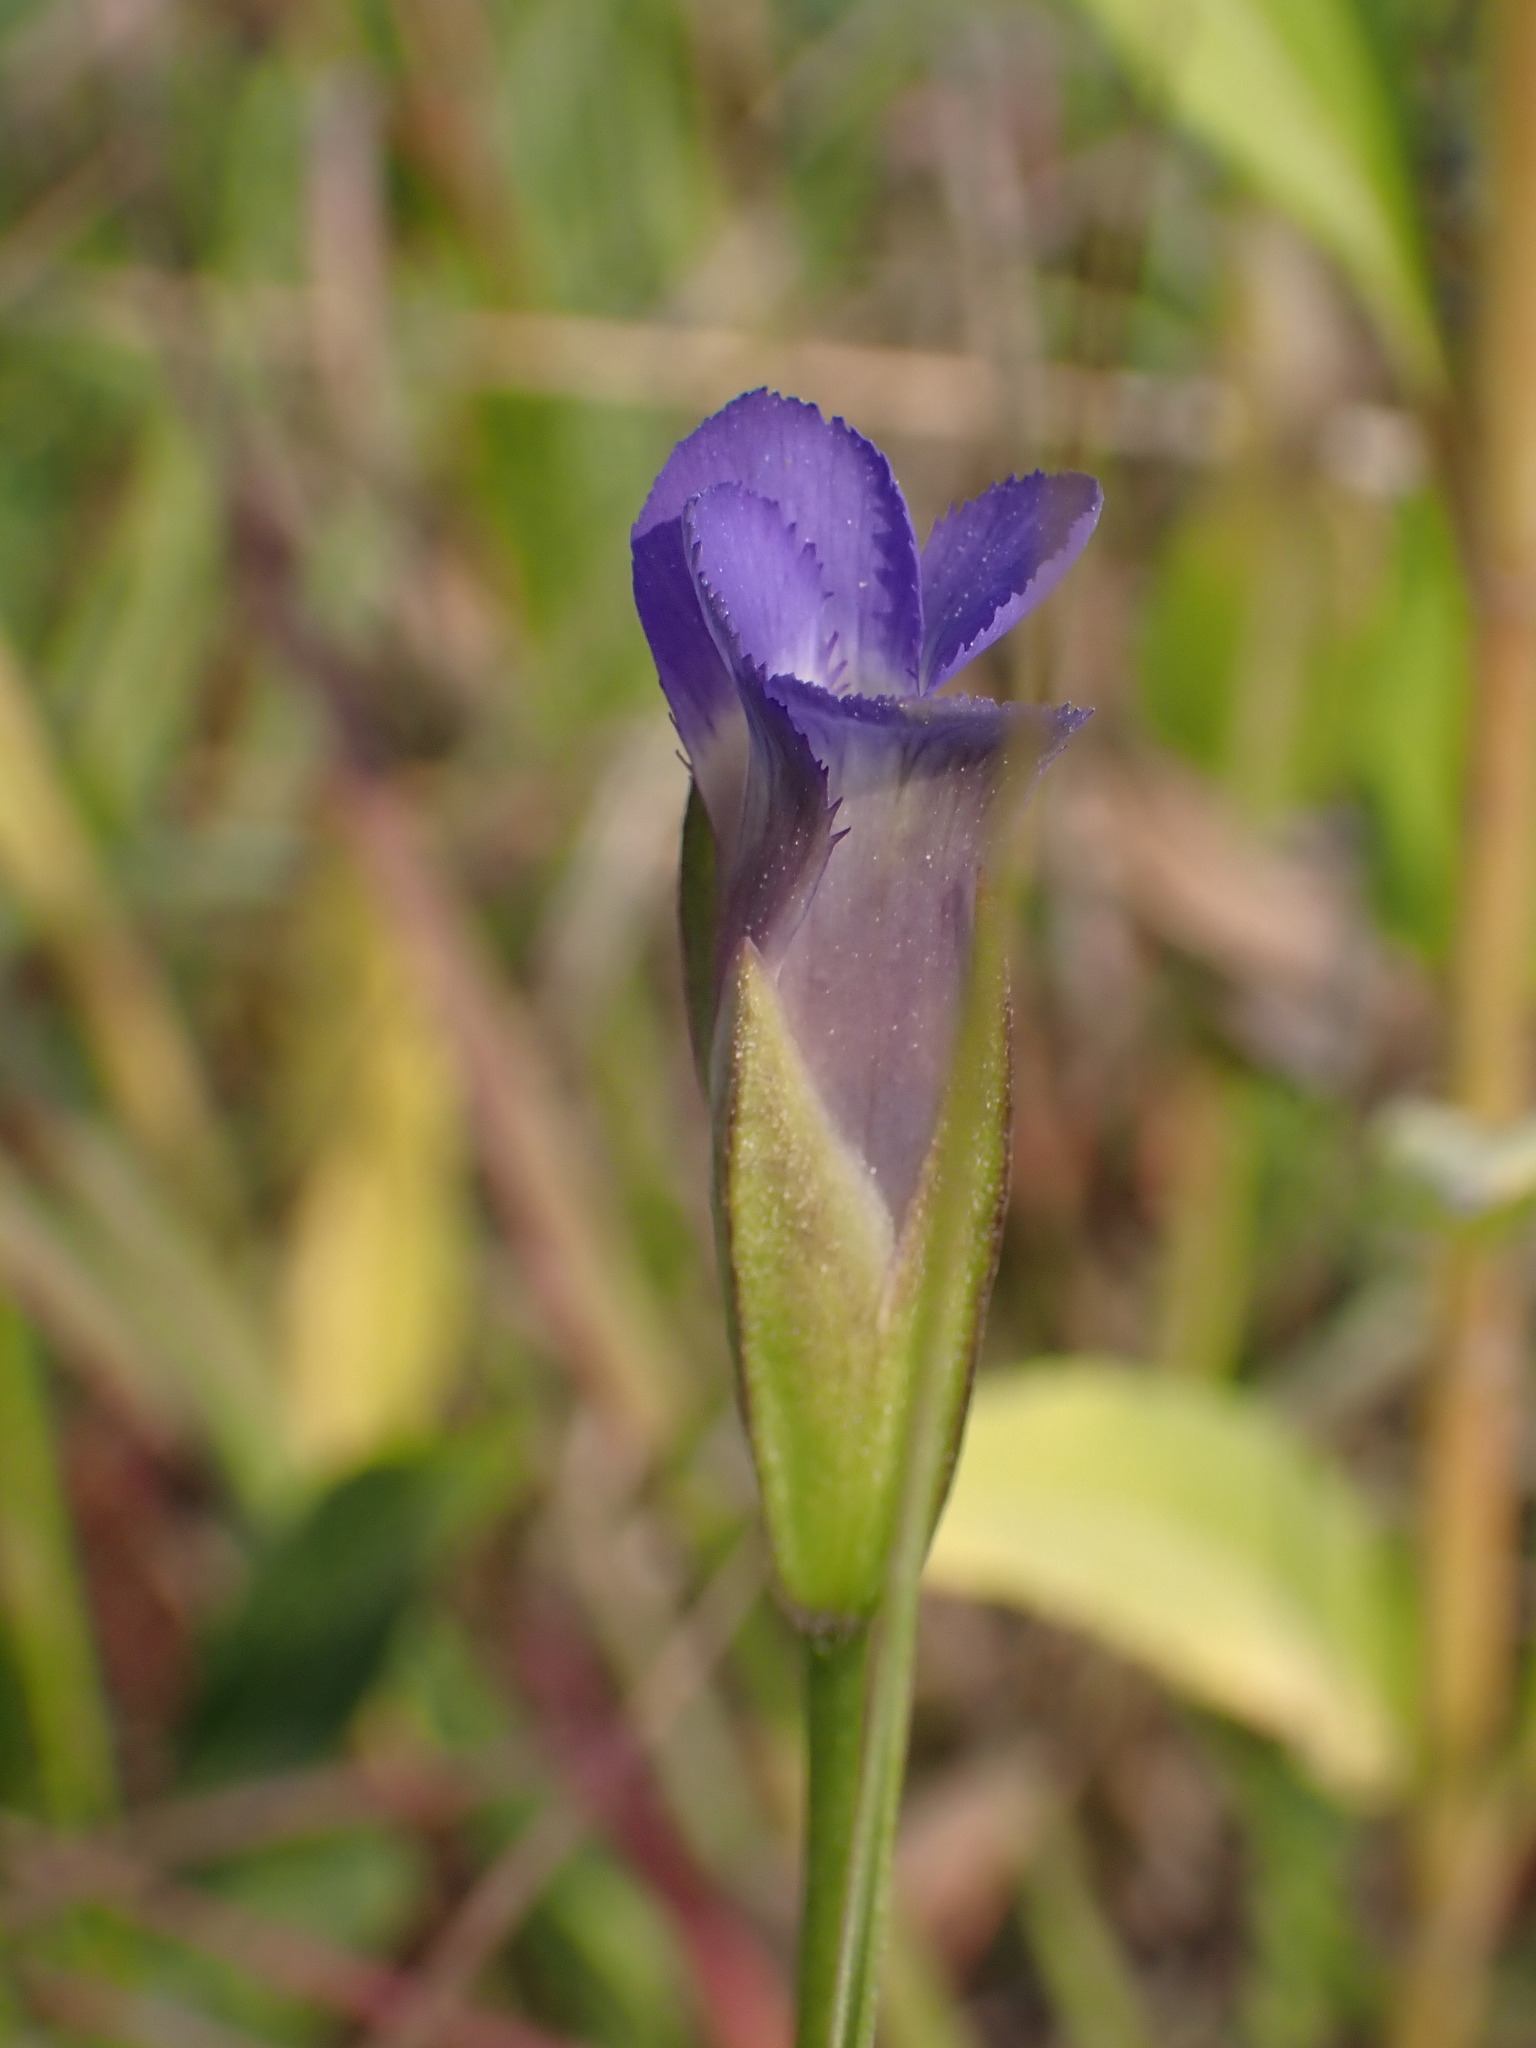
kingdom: Plantae
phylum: Tracheophyta
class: Magnoliopsida
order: Gentianales
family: Gentianaceae
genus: Gentianopsis
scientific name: Gentianopsis virgata
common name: Lesser fringed-gentian
